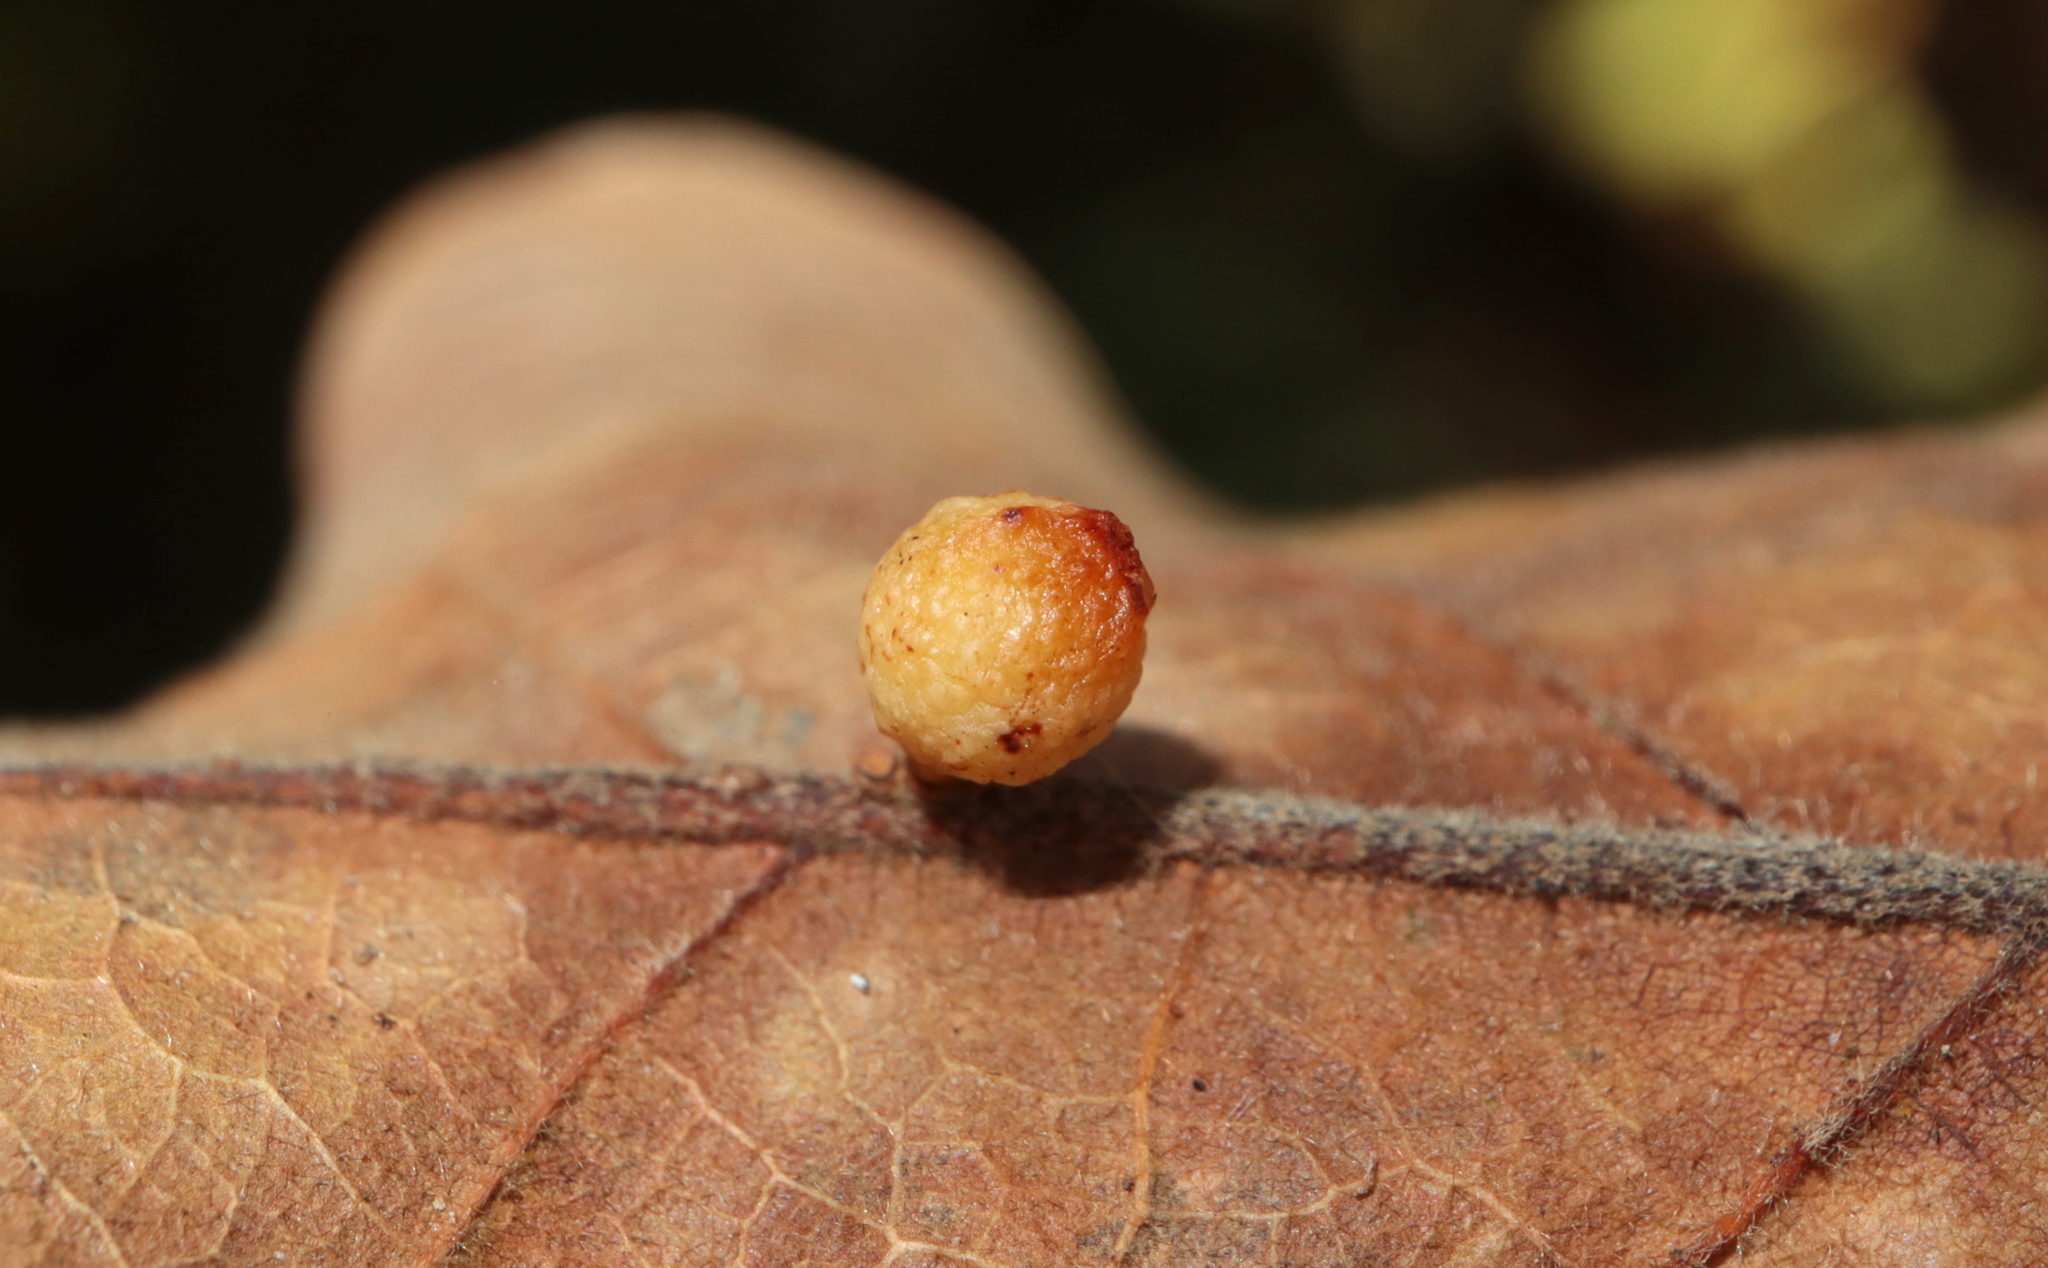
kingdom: Animalia
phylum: Arthropoda
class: Insecta
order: Hymenoptera
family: Cynipidae
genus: Andricus
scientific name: Andricus
